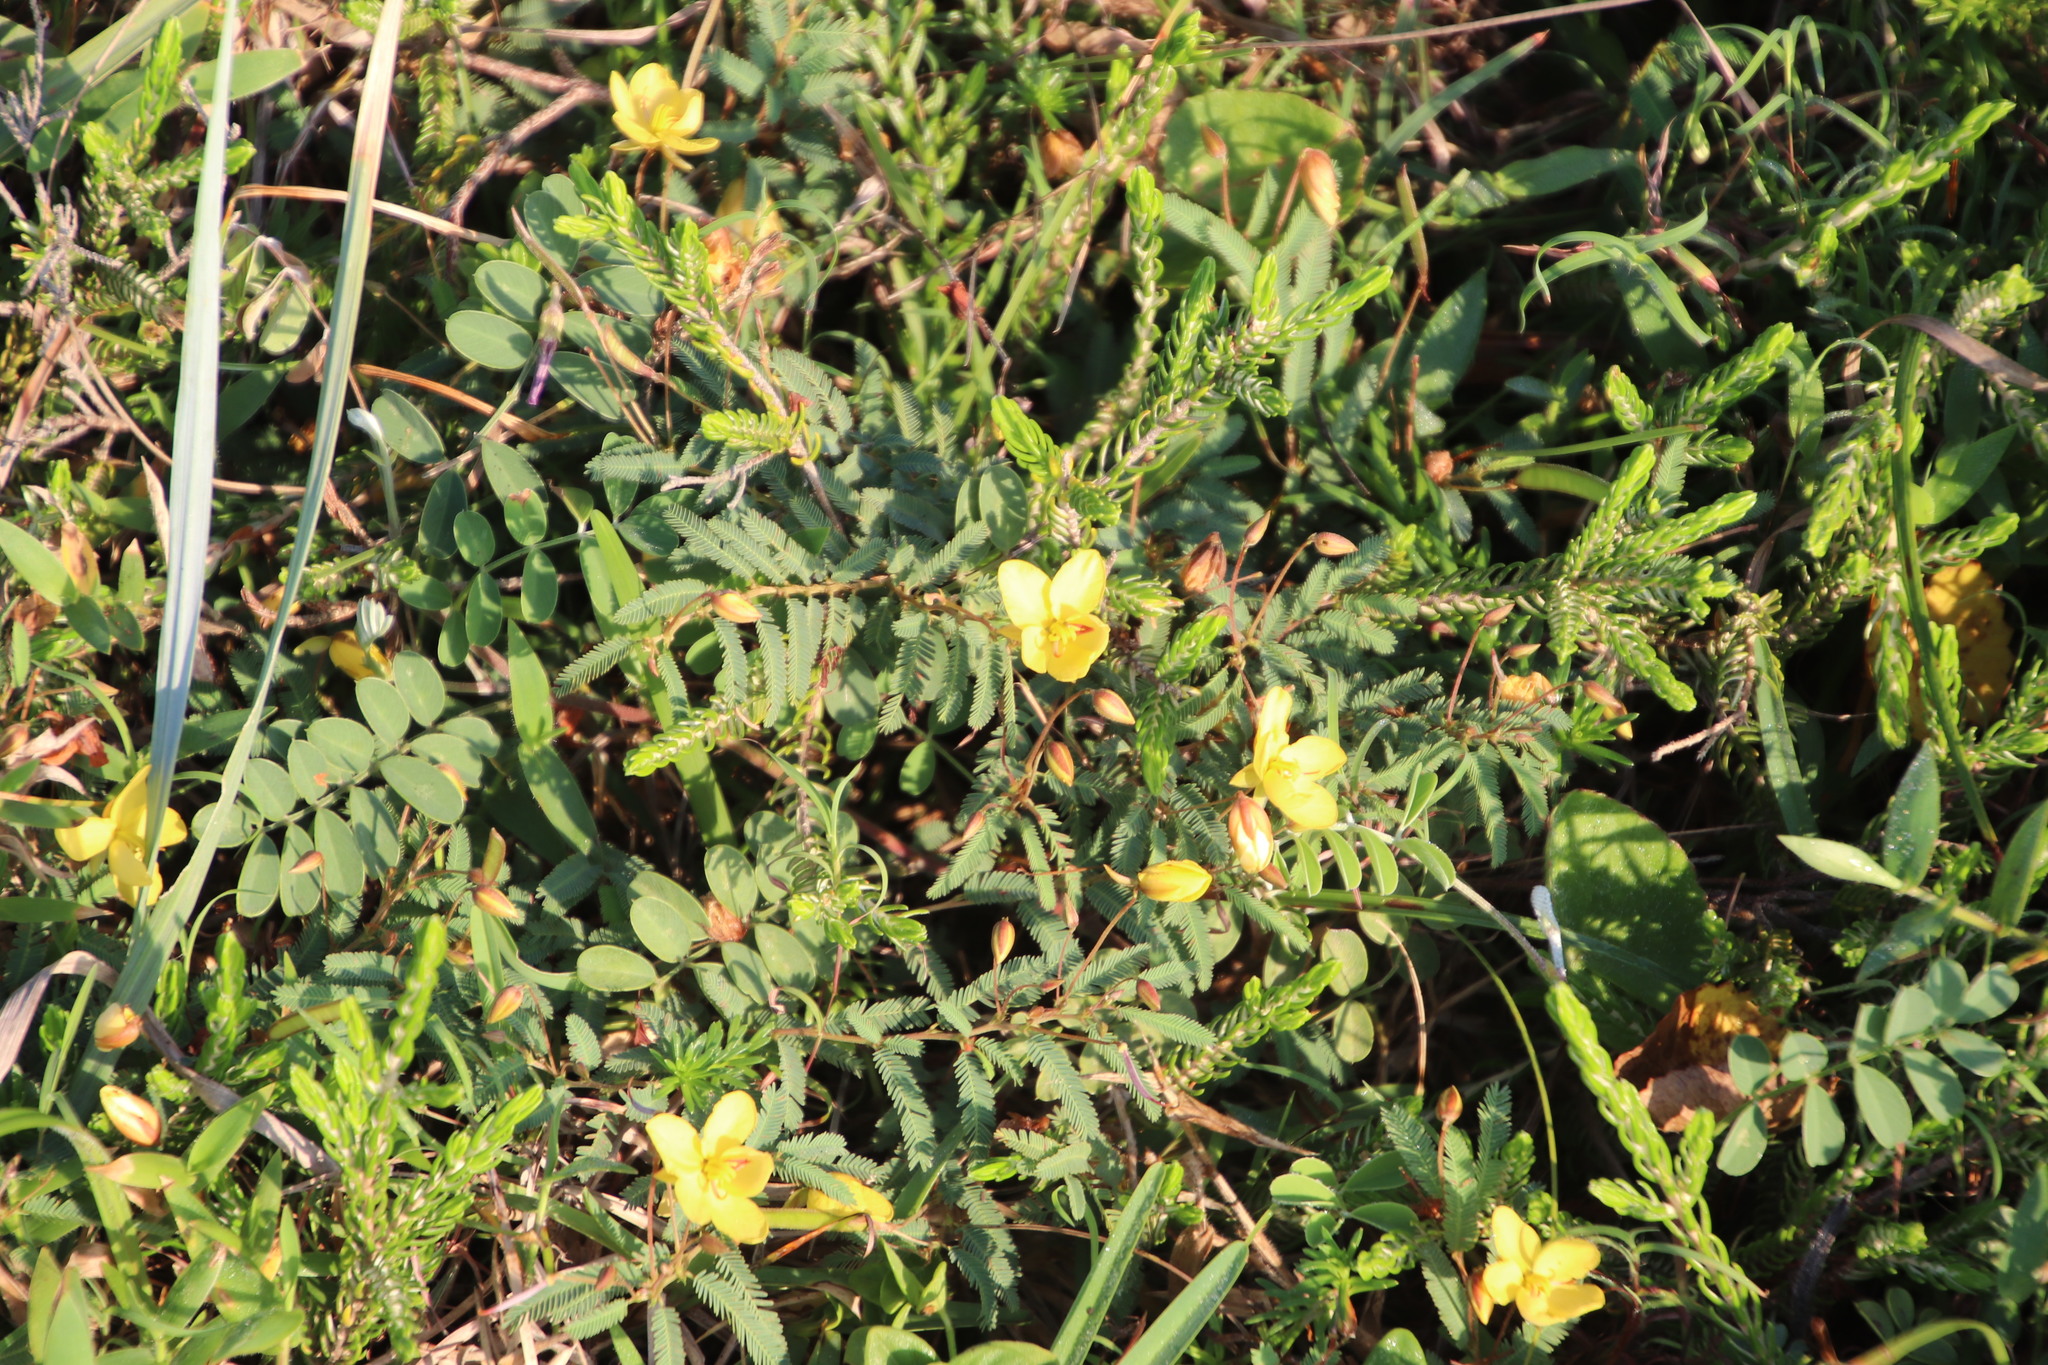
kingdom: Plantae
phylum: Tracheophyta
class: Magnoliopsida
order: Fabales
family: Fabaceae
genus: Chamaecrista
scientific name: Chamaecrista comosa
